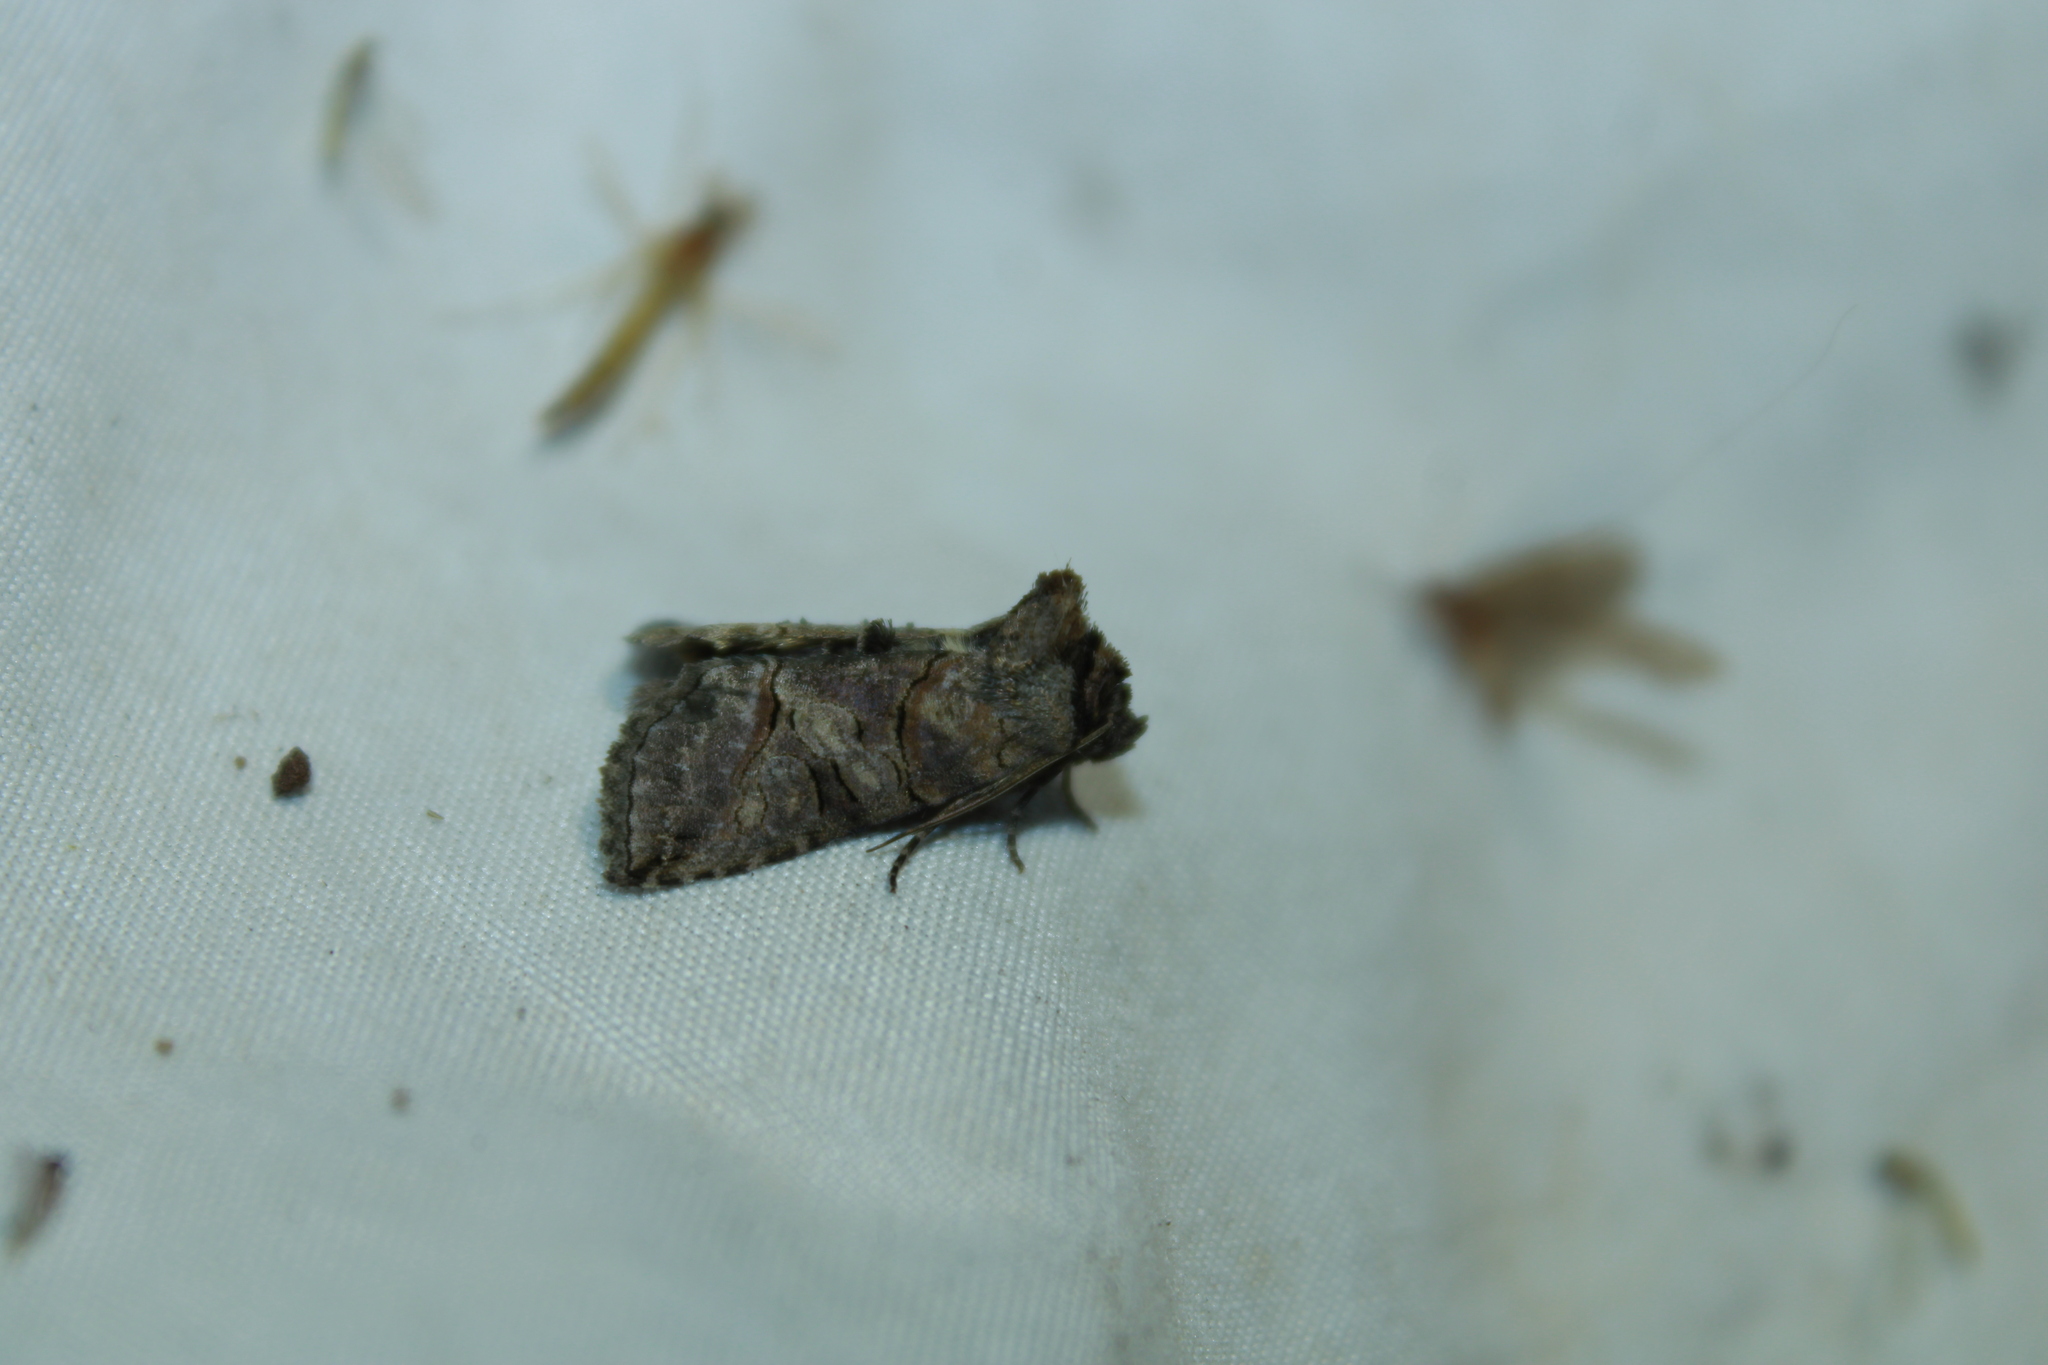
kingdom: Animalia
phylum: Arthropoda
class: Insecta
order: Lepidoptera
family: Noctuidae
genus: Abrostola
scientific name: Abrostola urentis
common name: Spectacled nettle moth
